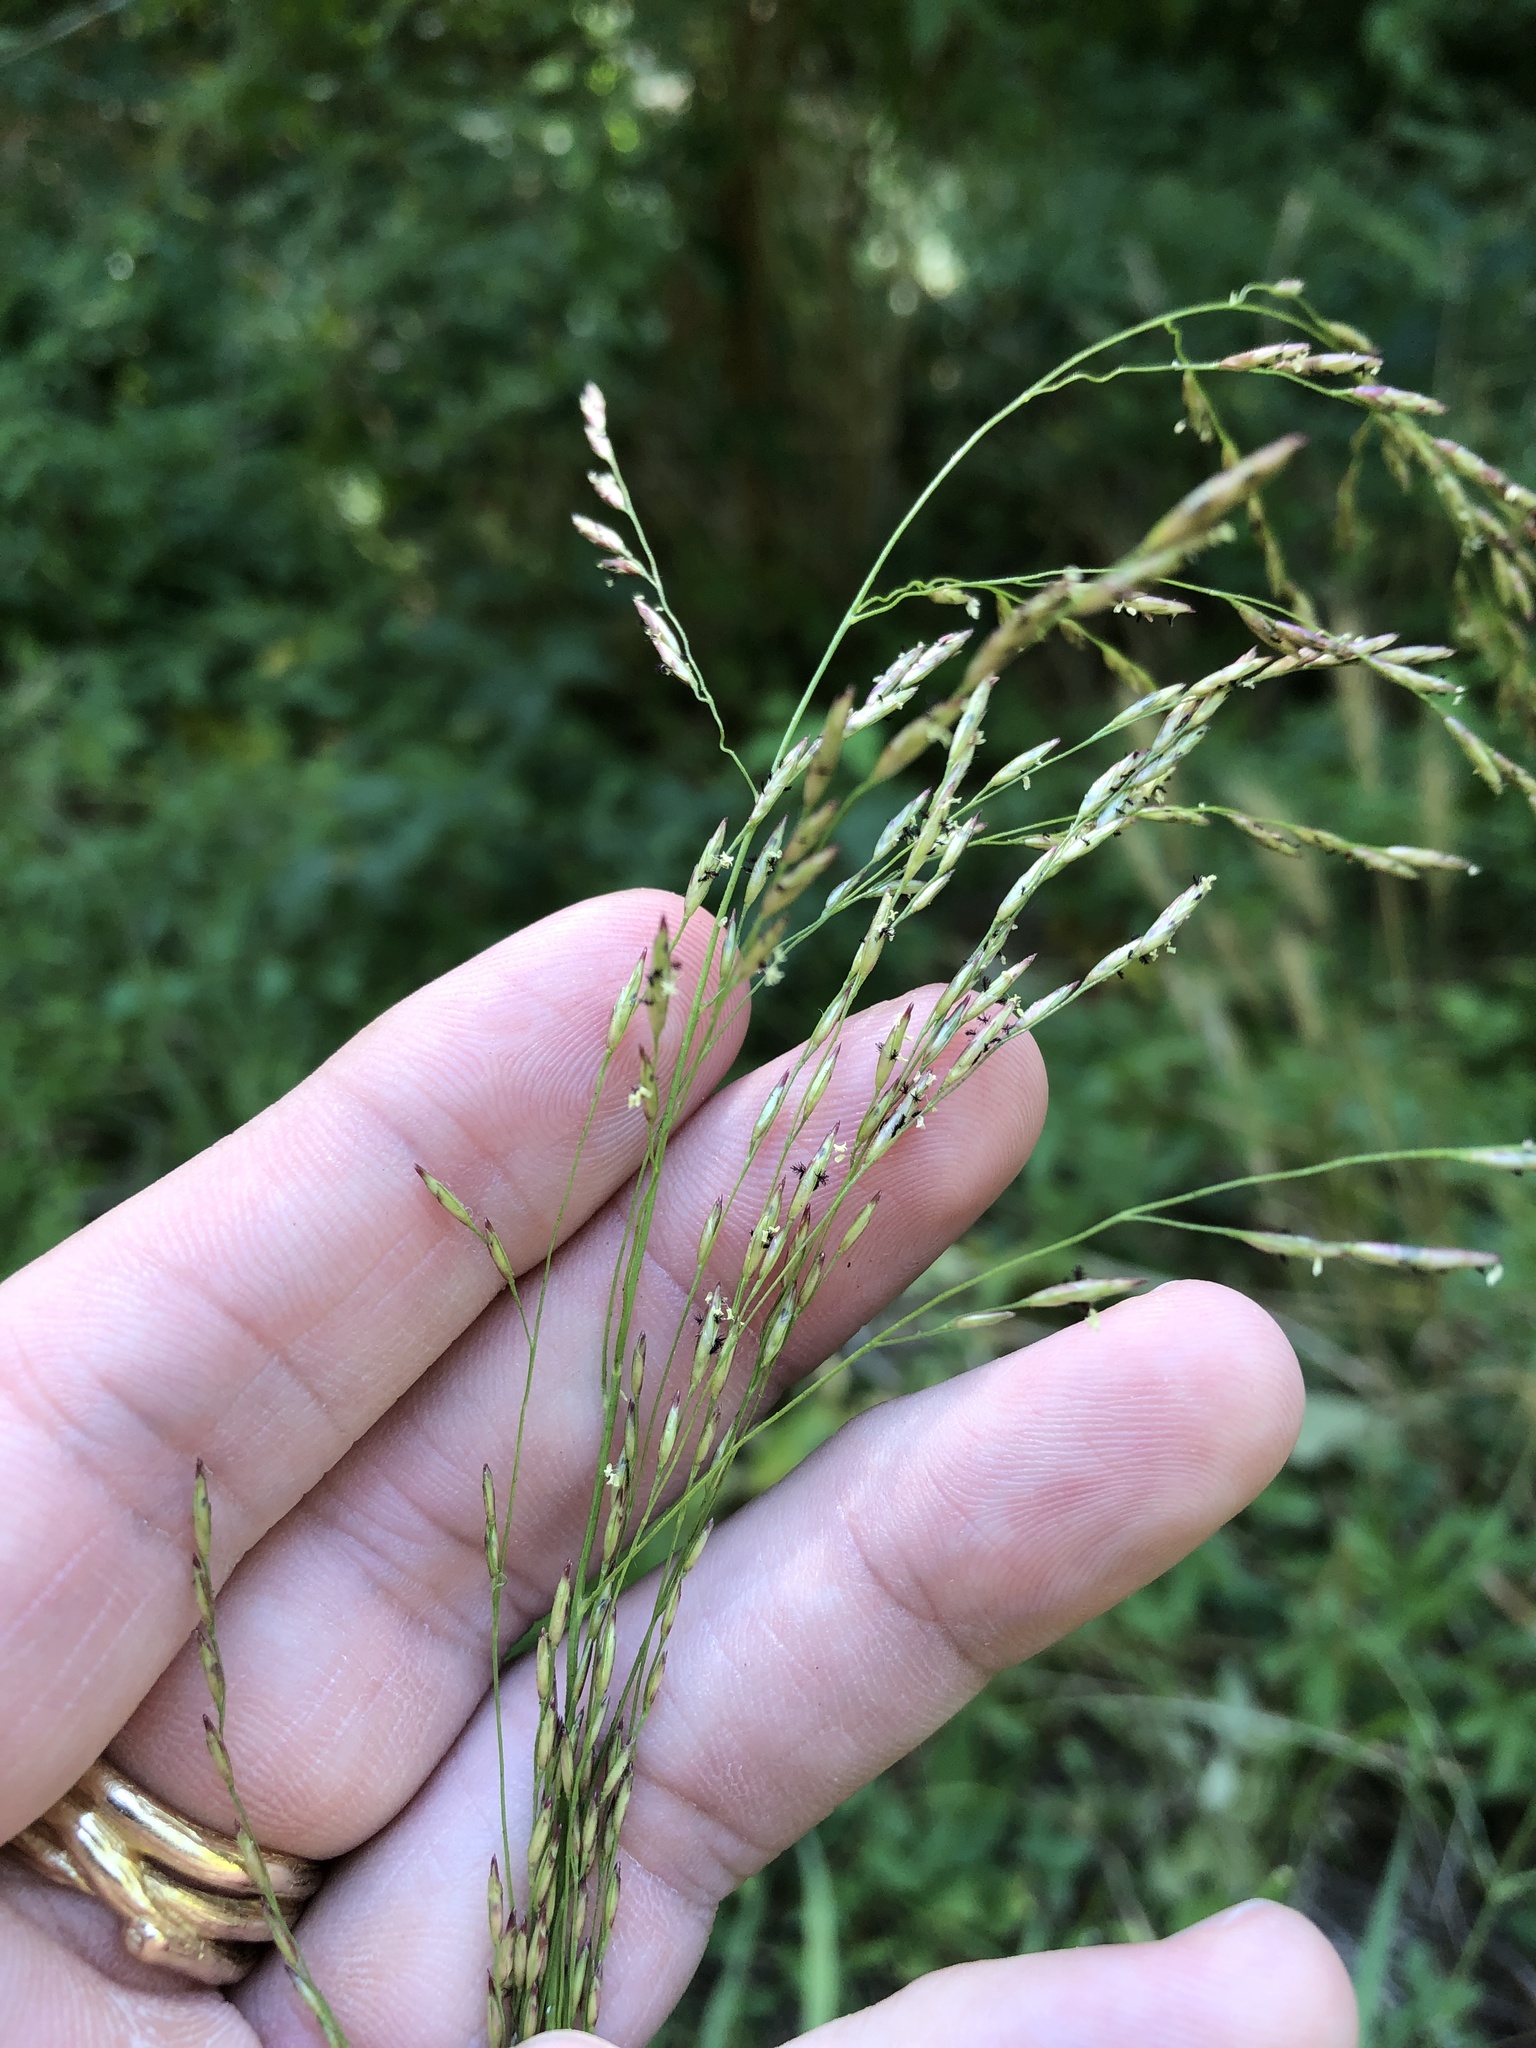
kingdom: Plantae
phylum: Tracheophyta
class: Liliopsida
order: Poales
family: Poaceae
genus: Tridens
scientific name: Tridens flavus
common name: Purpletop
